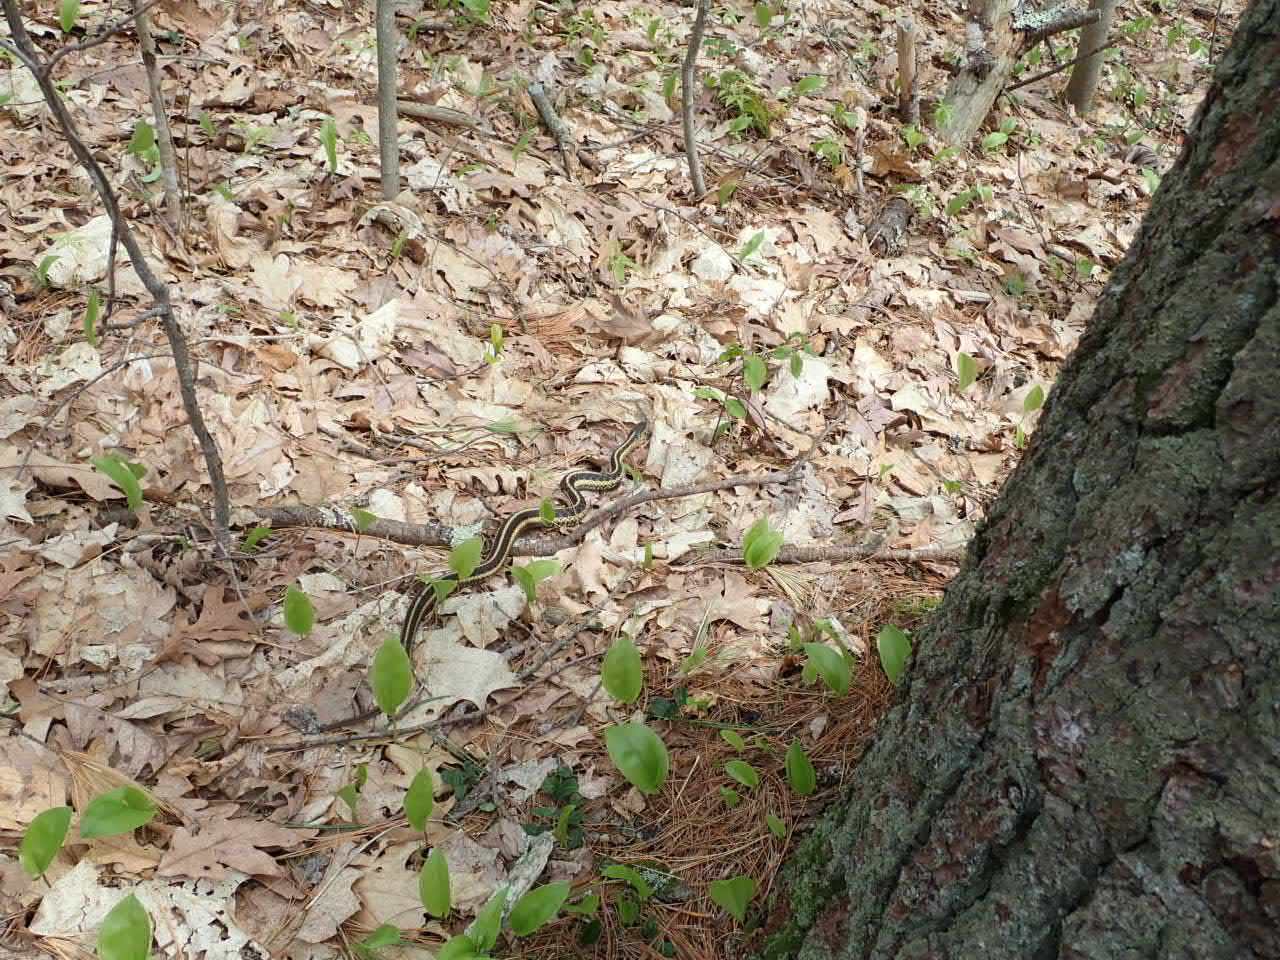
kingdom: Animalia
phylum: Chordata
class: Squamata
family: Colubridae
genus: Thamnophis
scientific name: Thamnophis sirtalis
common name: Common garter snake
